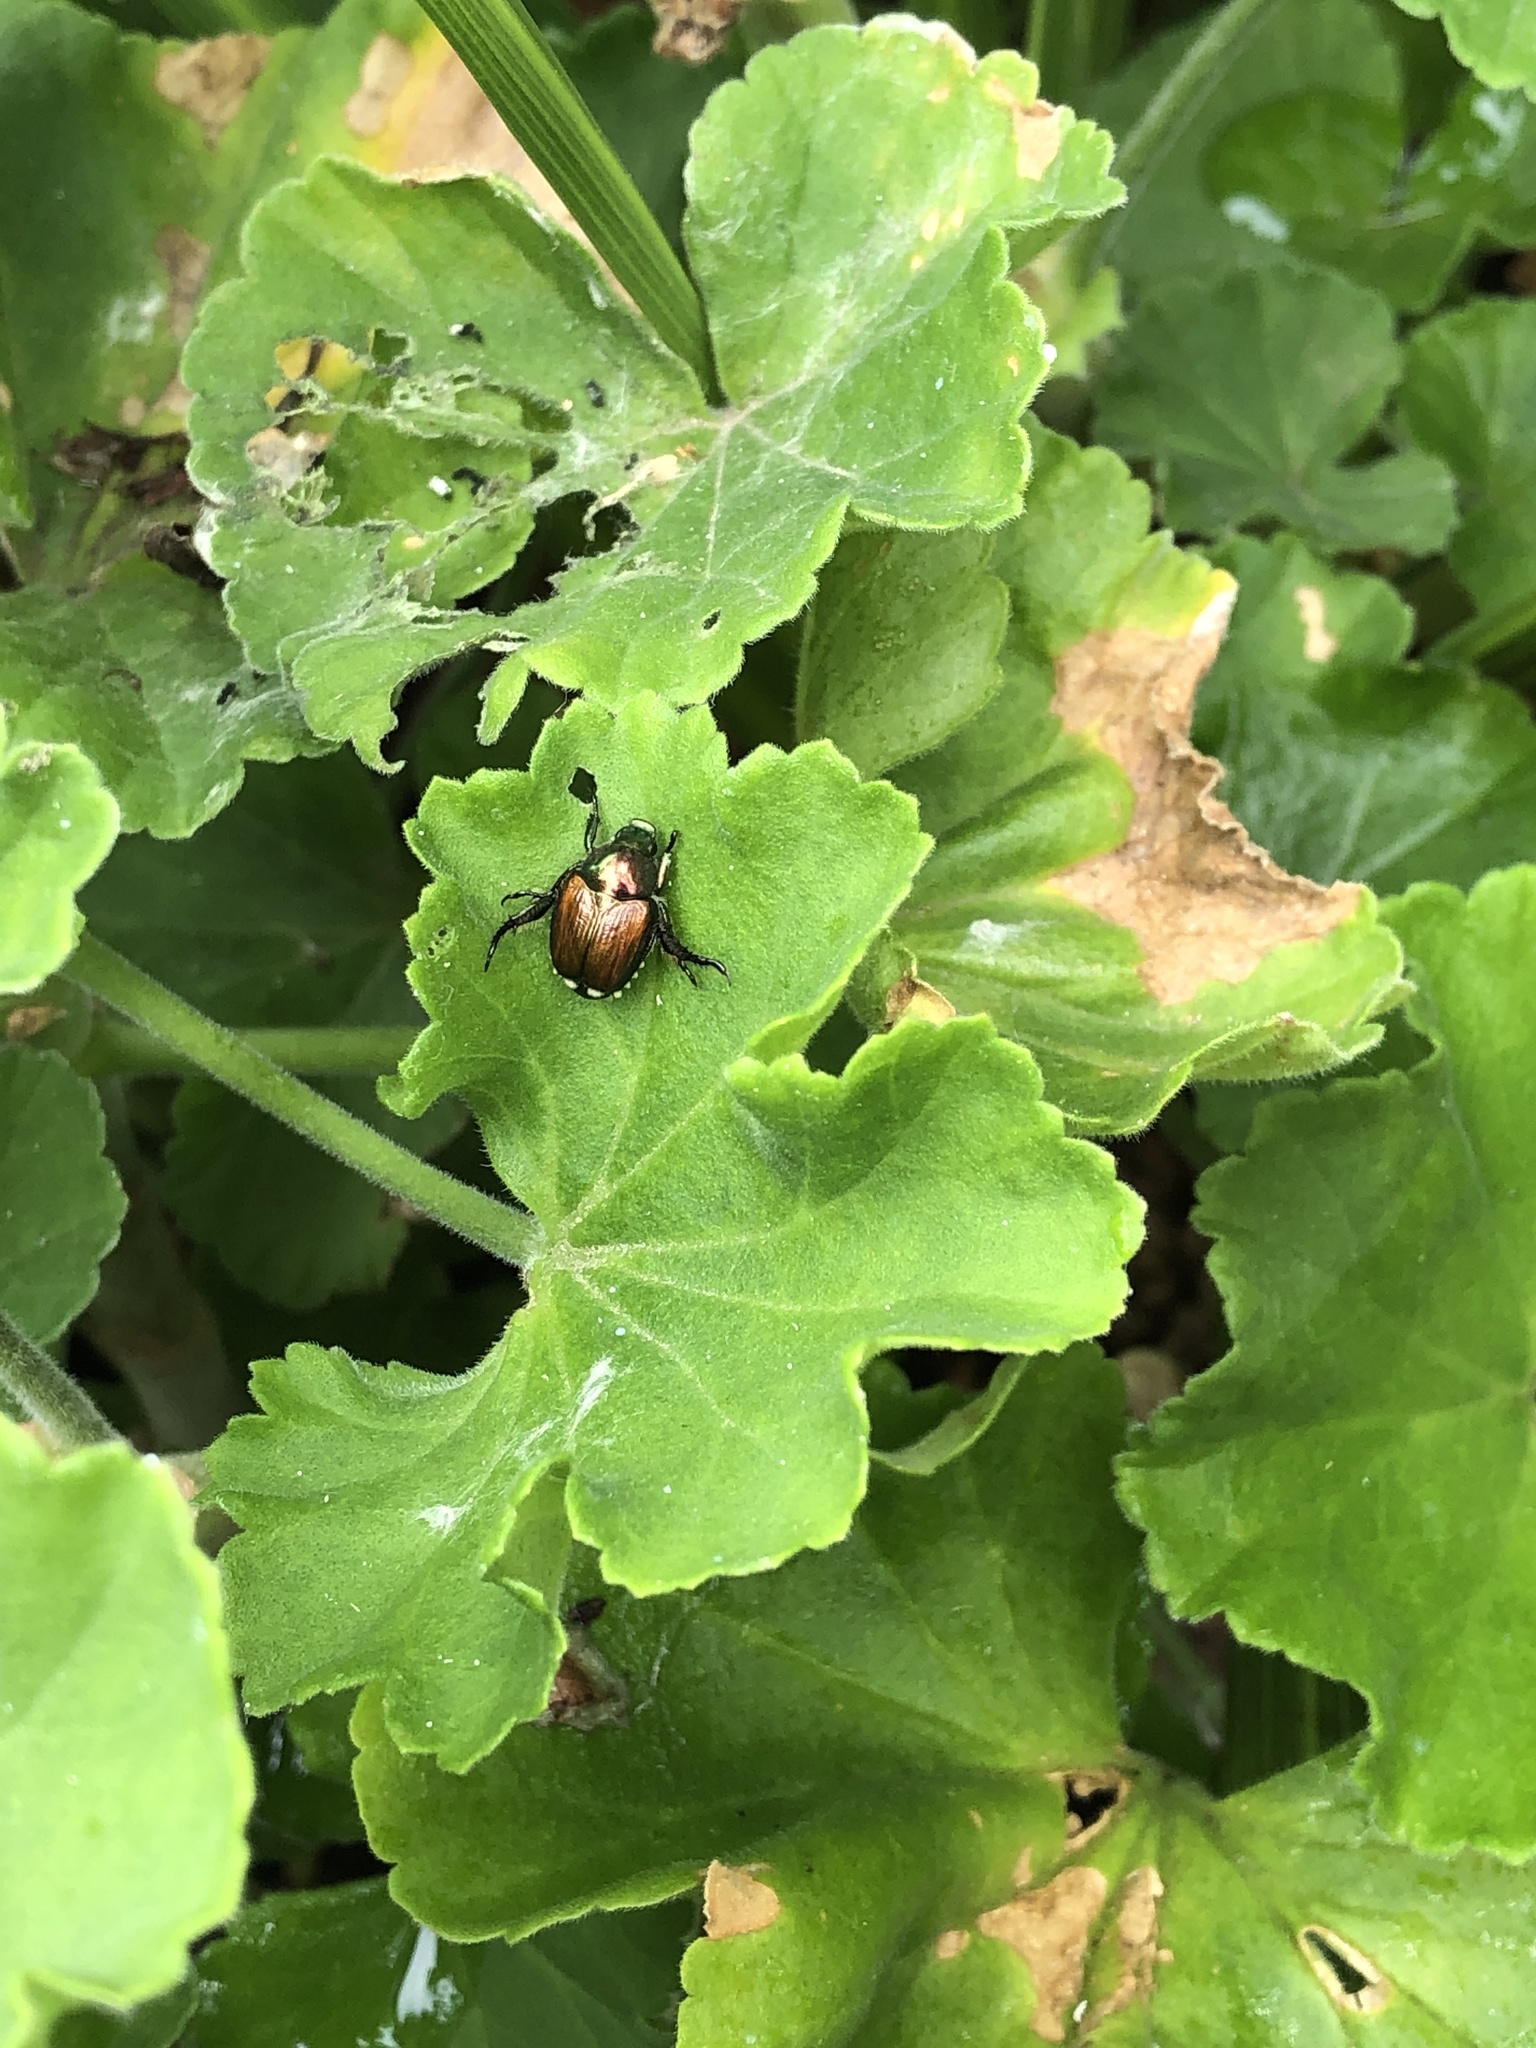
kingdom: Animalia
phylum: Arthropoda
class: Insecta
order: Coleoptera
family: Scarabaeidae
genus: Popillia
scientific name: Popillia japonica
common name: Japanese beetle
